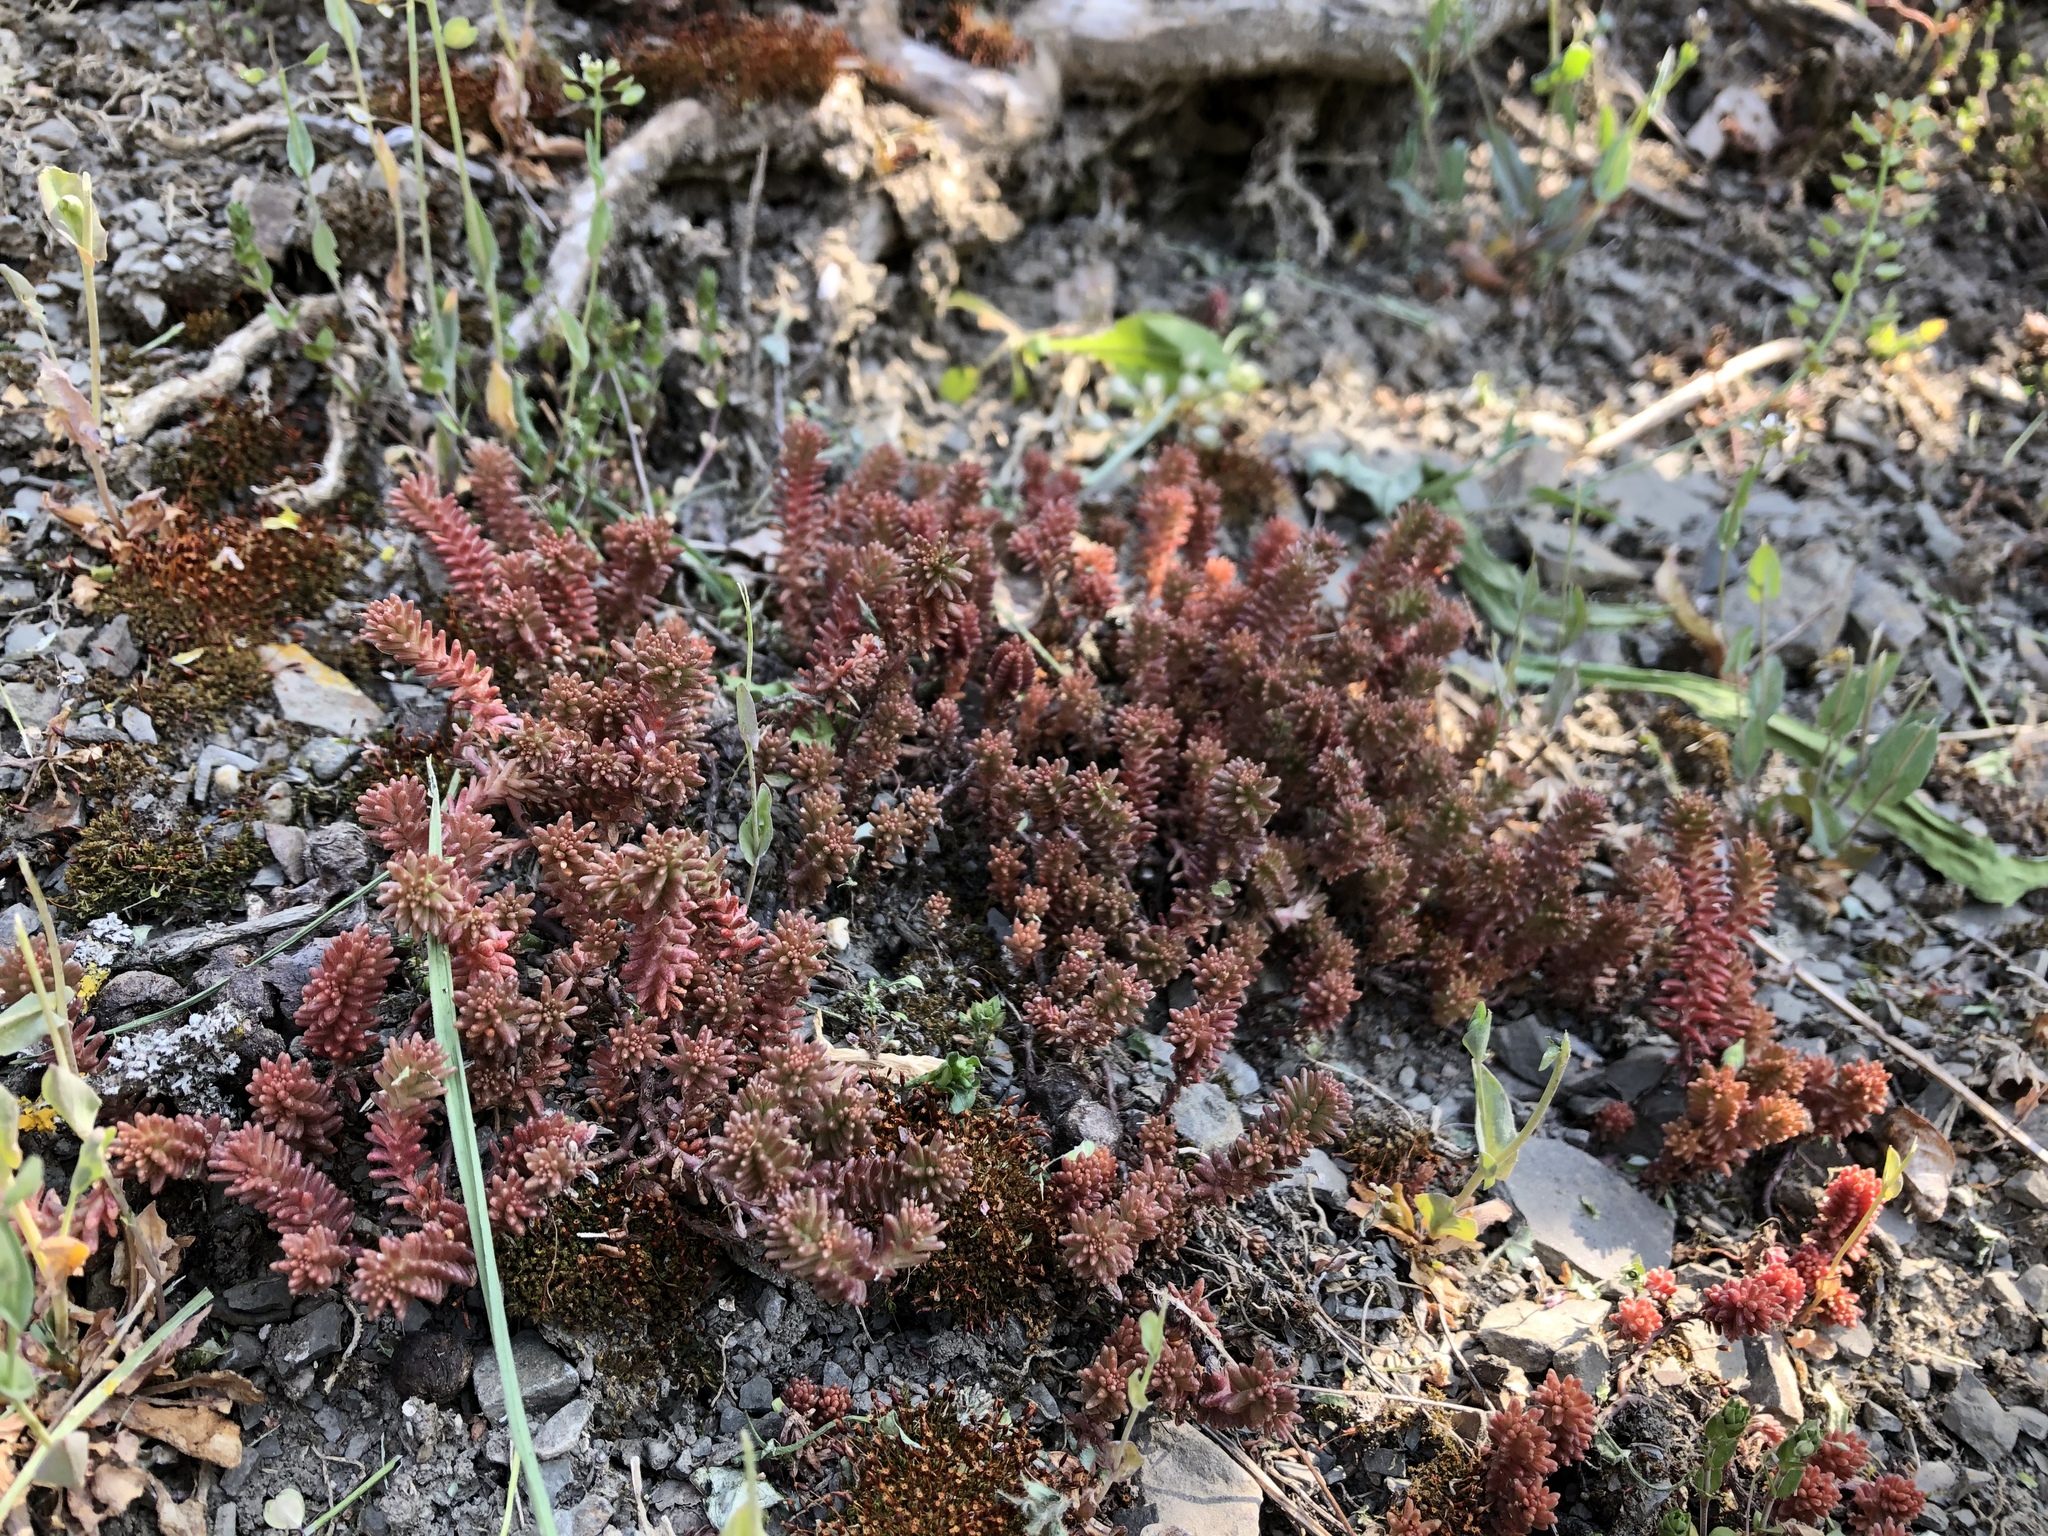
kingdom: Plantae
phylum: Tracheophyta
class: Magnoliopsida
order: Saxifragales
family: Crassulaceae
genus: Sedum
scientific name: Sedum sexangulare
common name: Tasteless stonecrop
